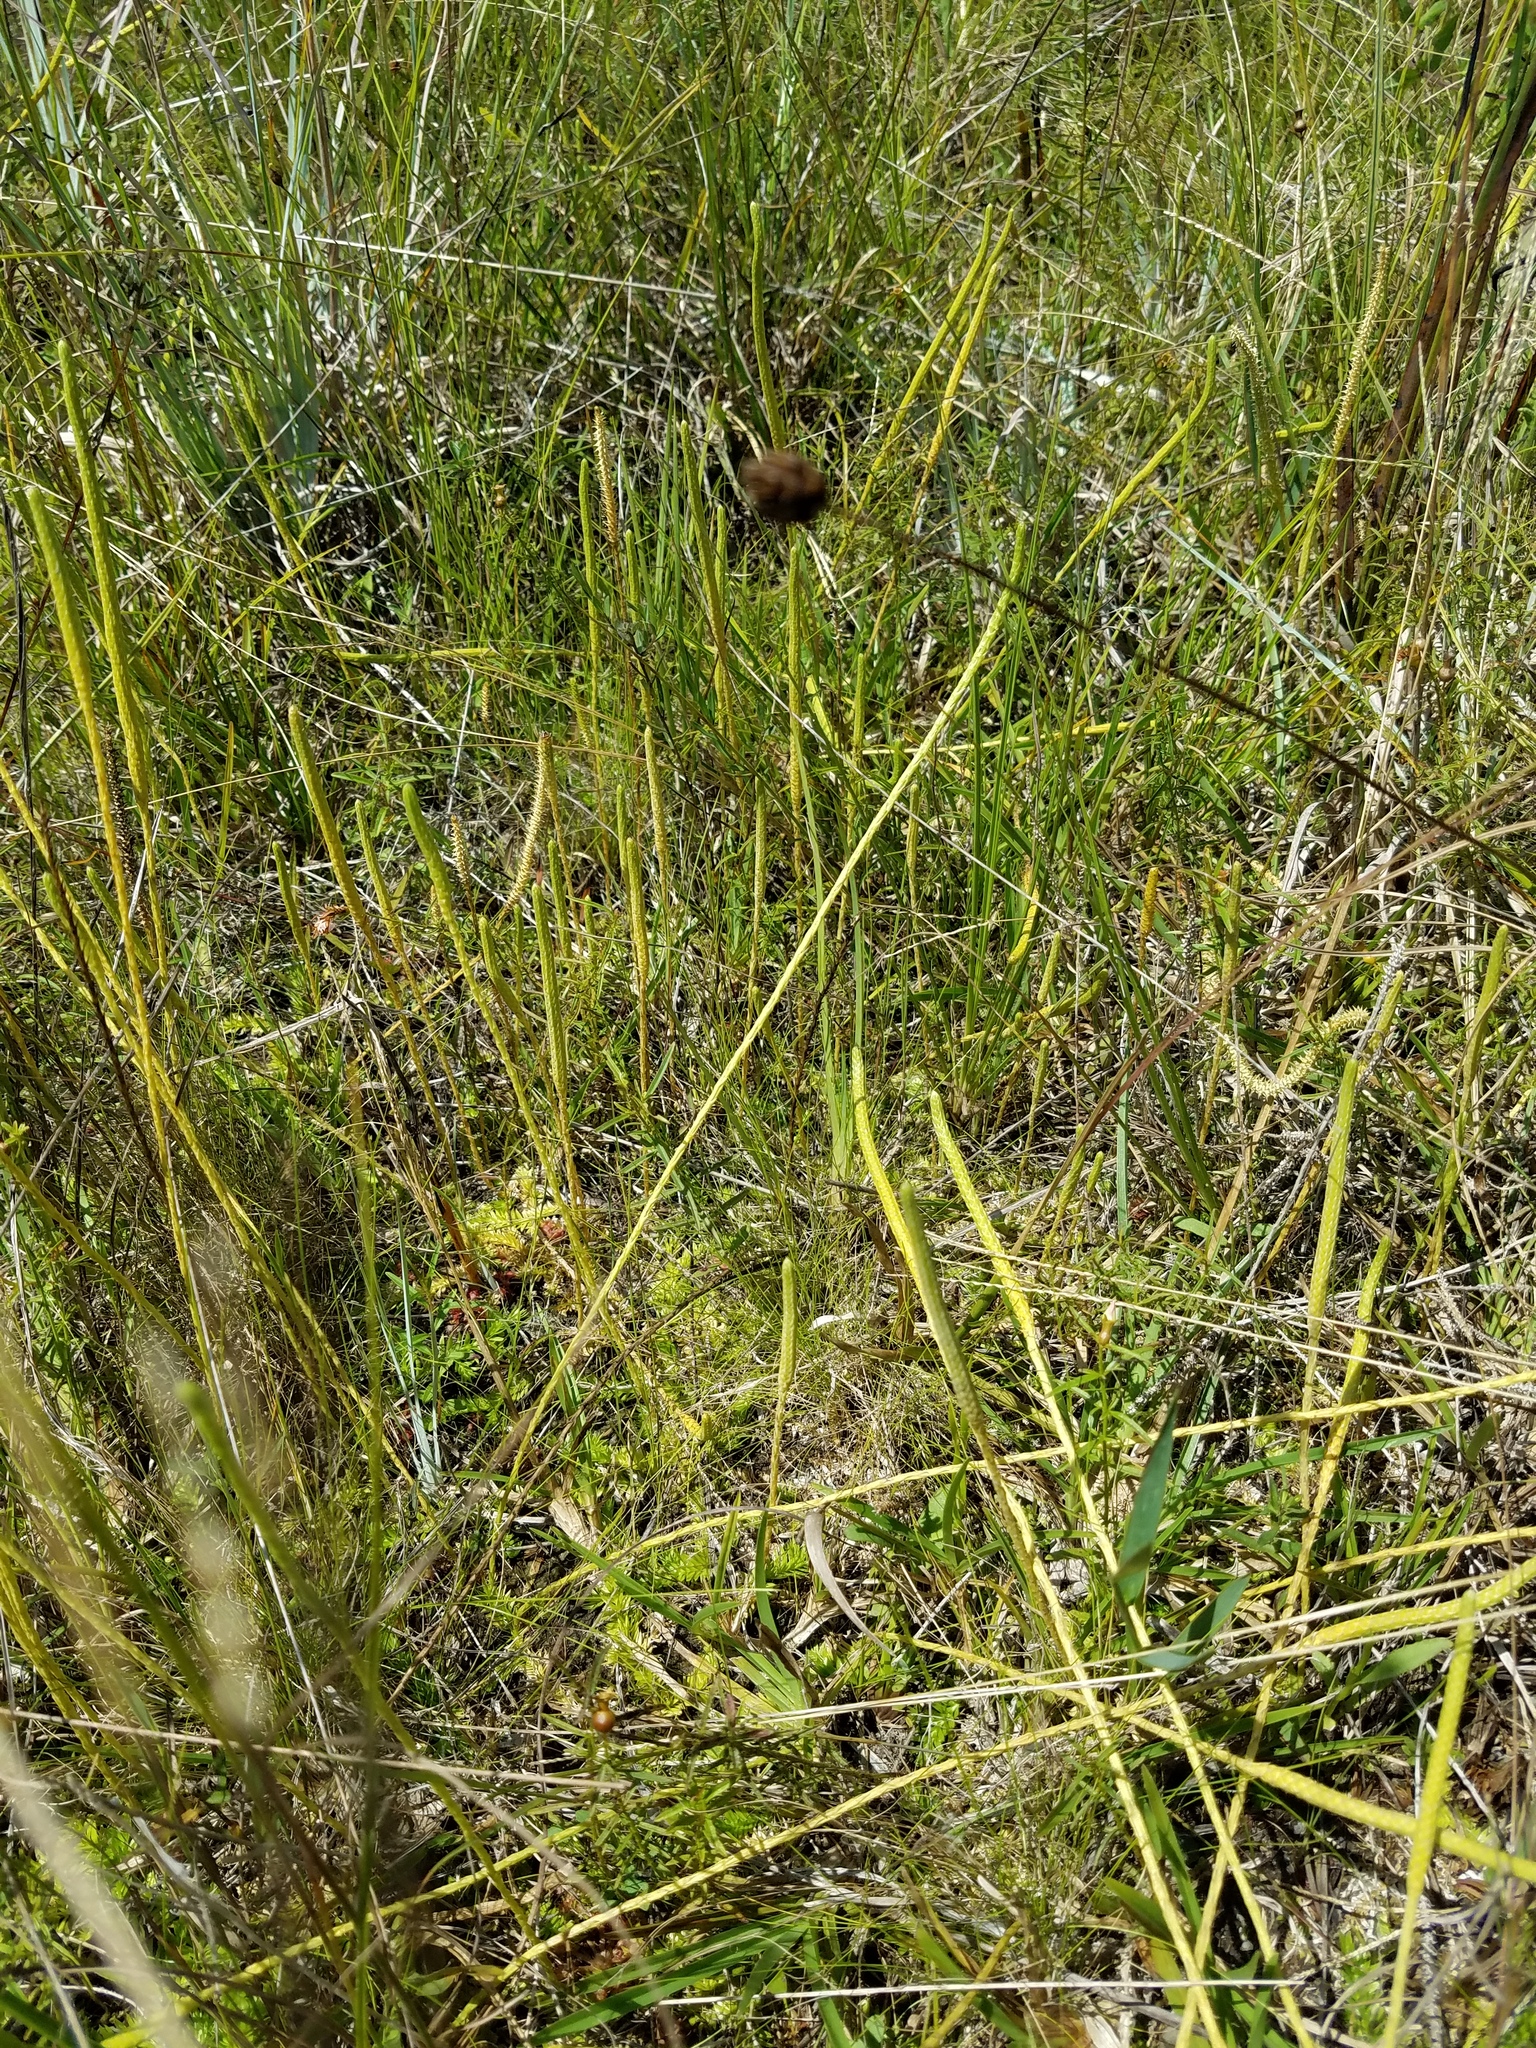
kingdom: Plantae
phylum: Tracheophyta
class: Lycopodiopsida
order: Lycopodiales
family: Lycopodiaceae
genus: Pseudolycopodiella
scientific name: Pseudolycopodiella caroliniana
